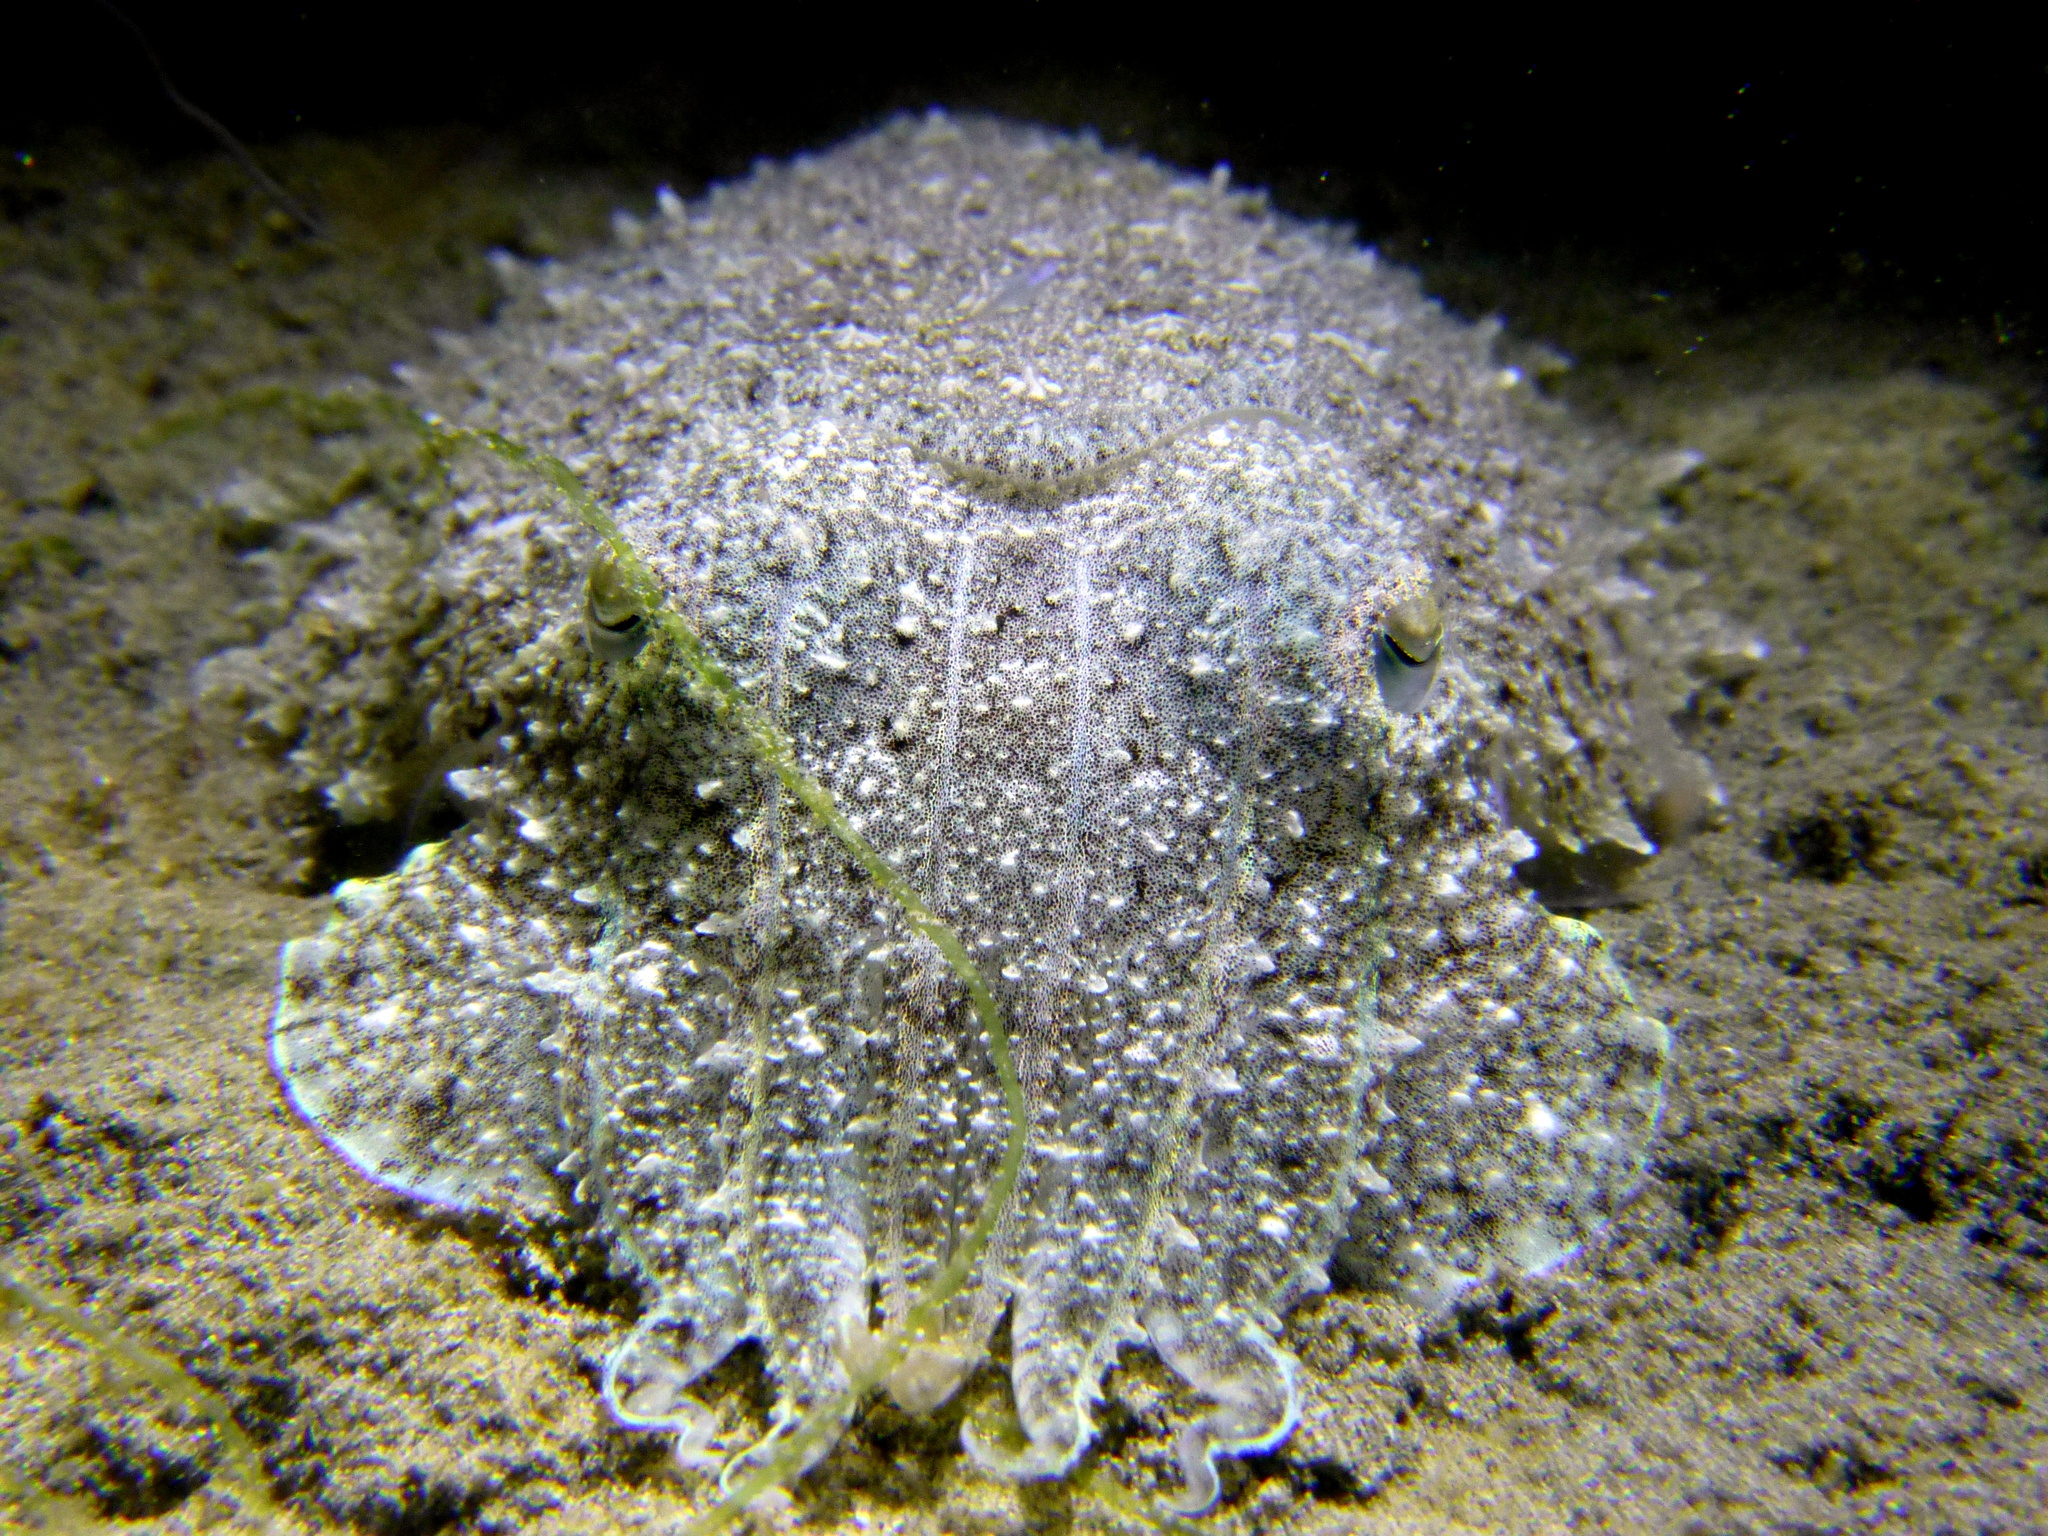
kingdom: Animalia
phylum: Mollusca
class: Cephalopoda
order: Sepiida
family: Sepiidae
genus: Acanthosepion
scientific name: Acanthosepion aculeatum
